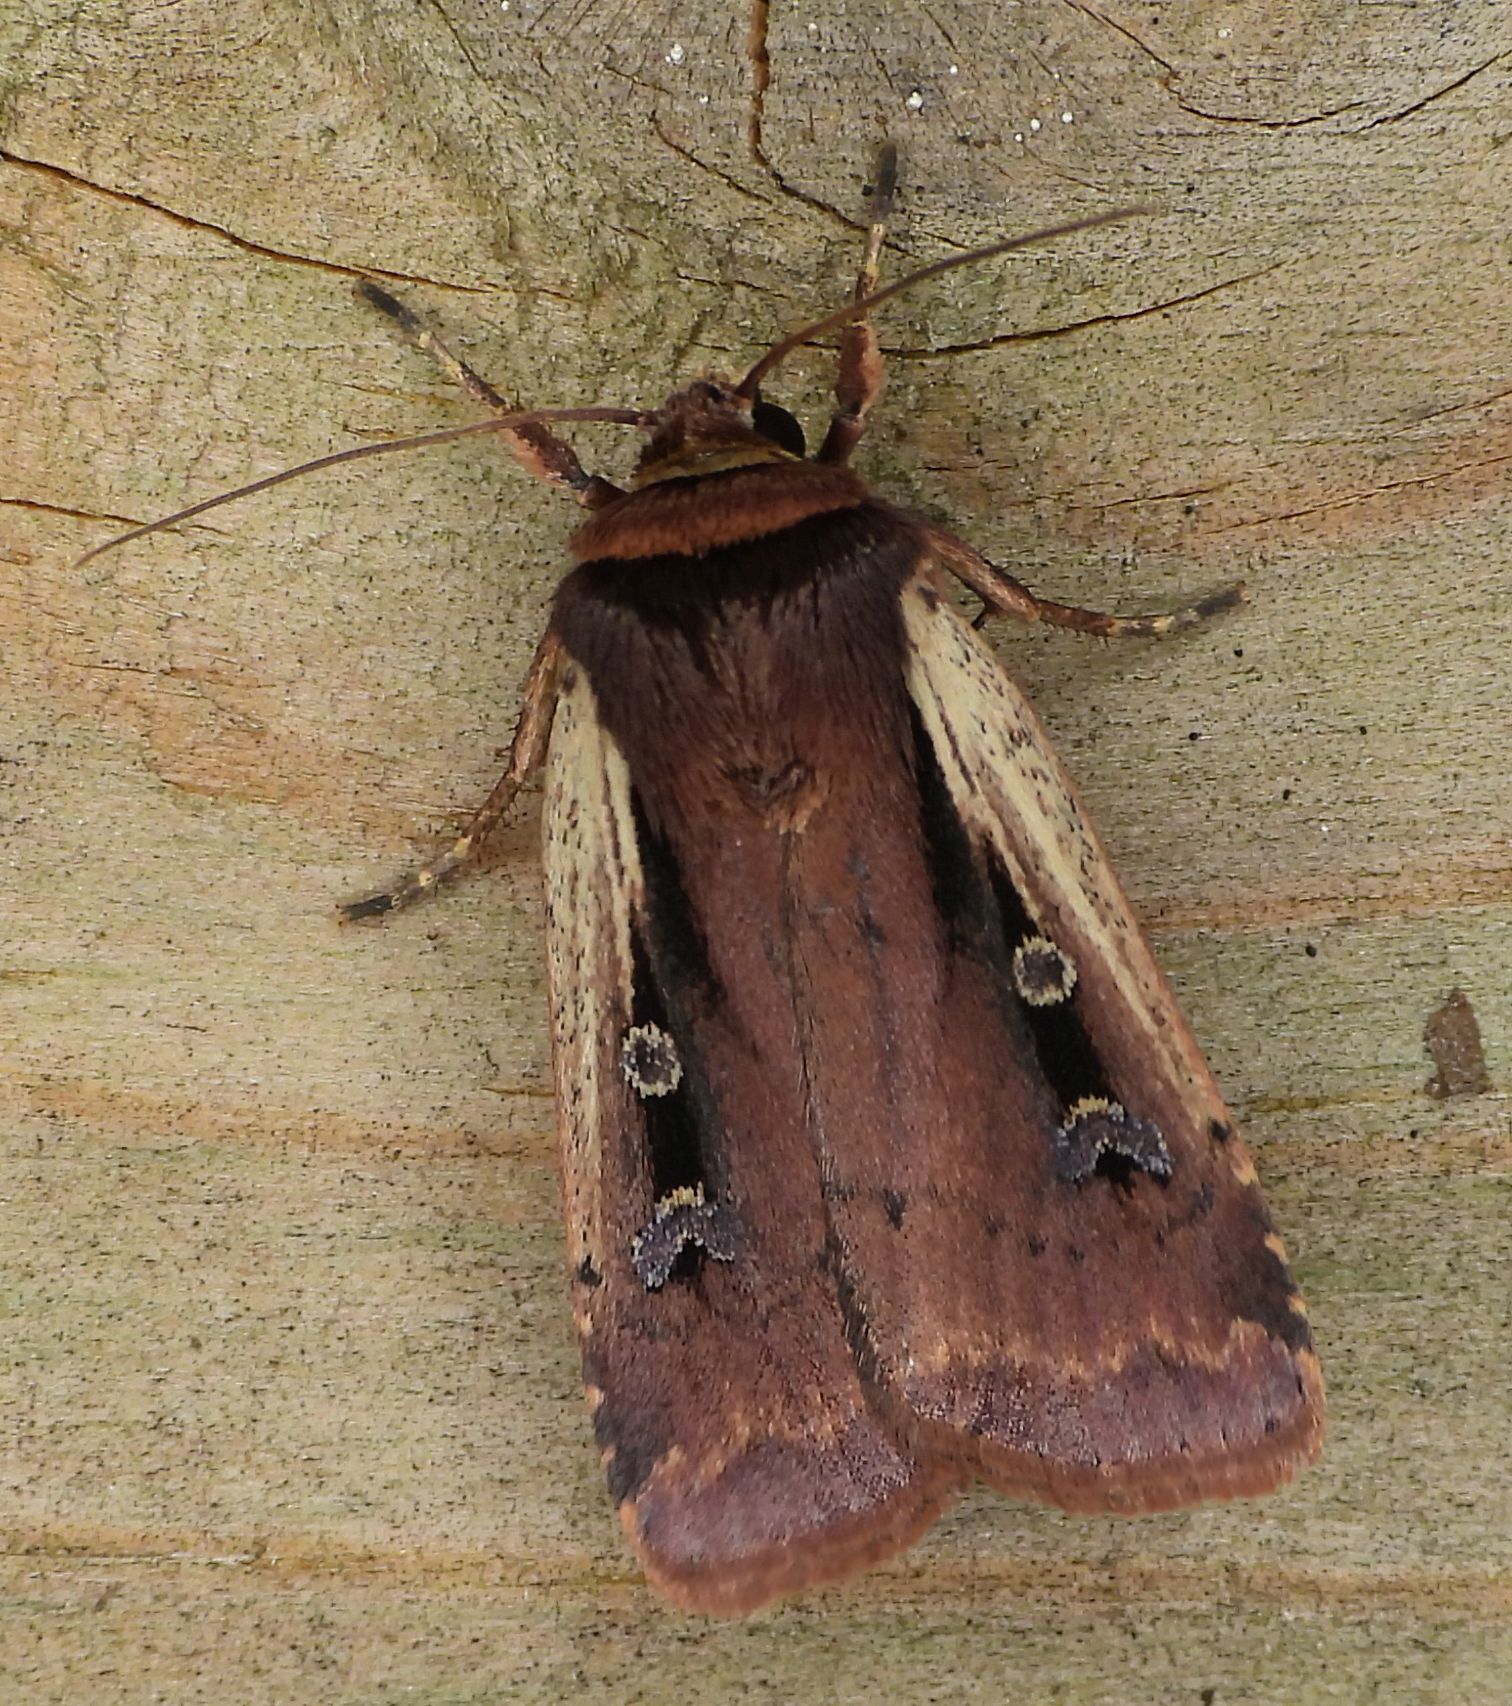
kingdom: Animalia
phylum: Arthropoda
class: Insecta
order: Lepidoptera
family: Noctuidae
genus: Ochropleura
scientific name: Ochropleura implecta
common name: Flame-shouldered dart
